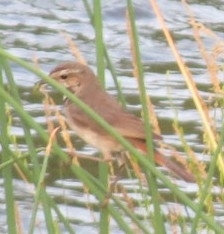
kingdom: Animalia
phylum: Chordata
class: Aves
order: Passeriformes
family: Muscicapidae
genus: Luscinia
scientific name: Luscinia svecica
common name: Bluethroat
